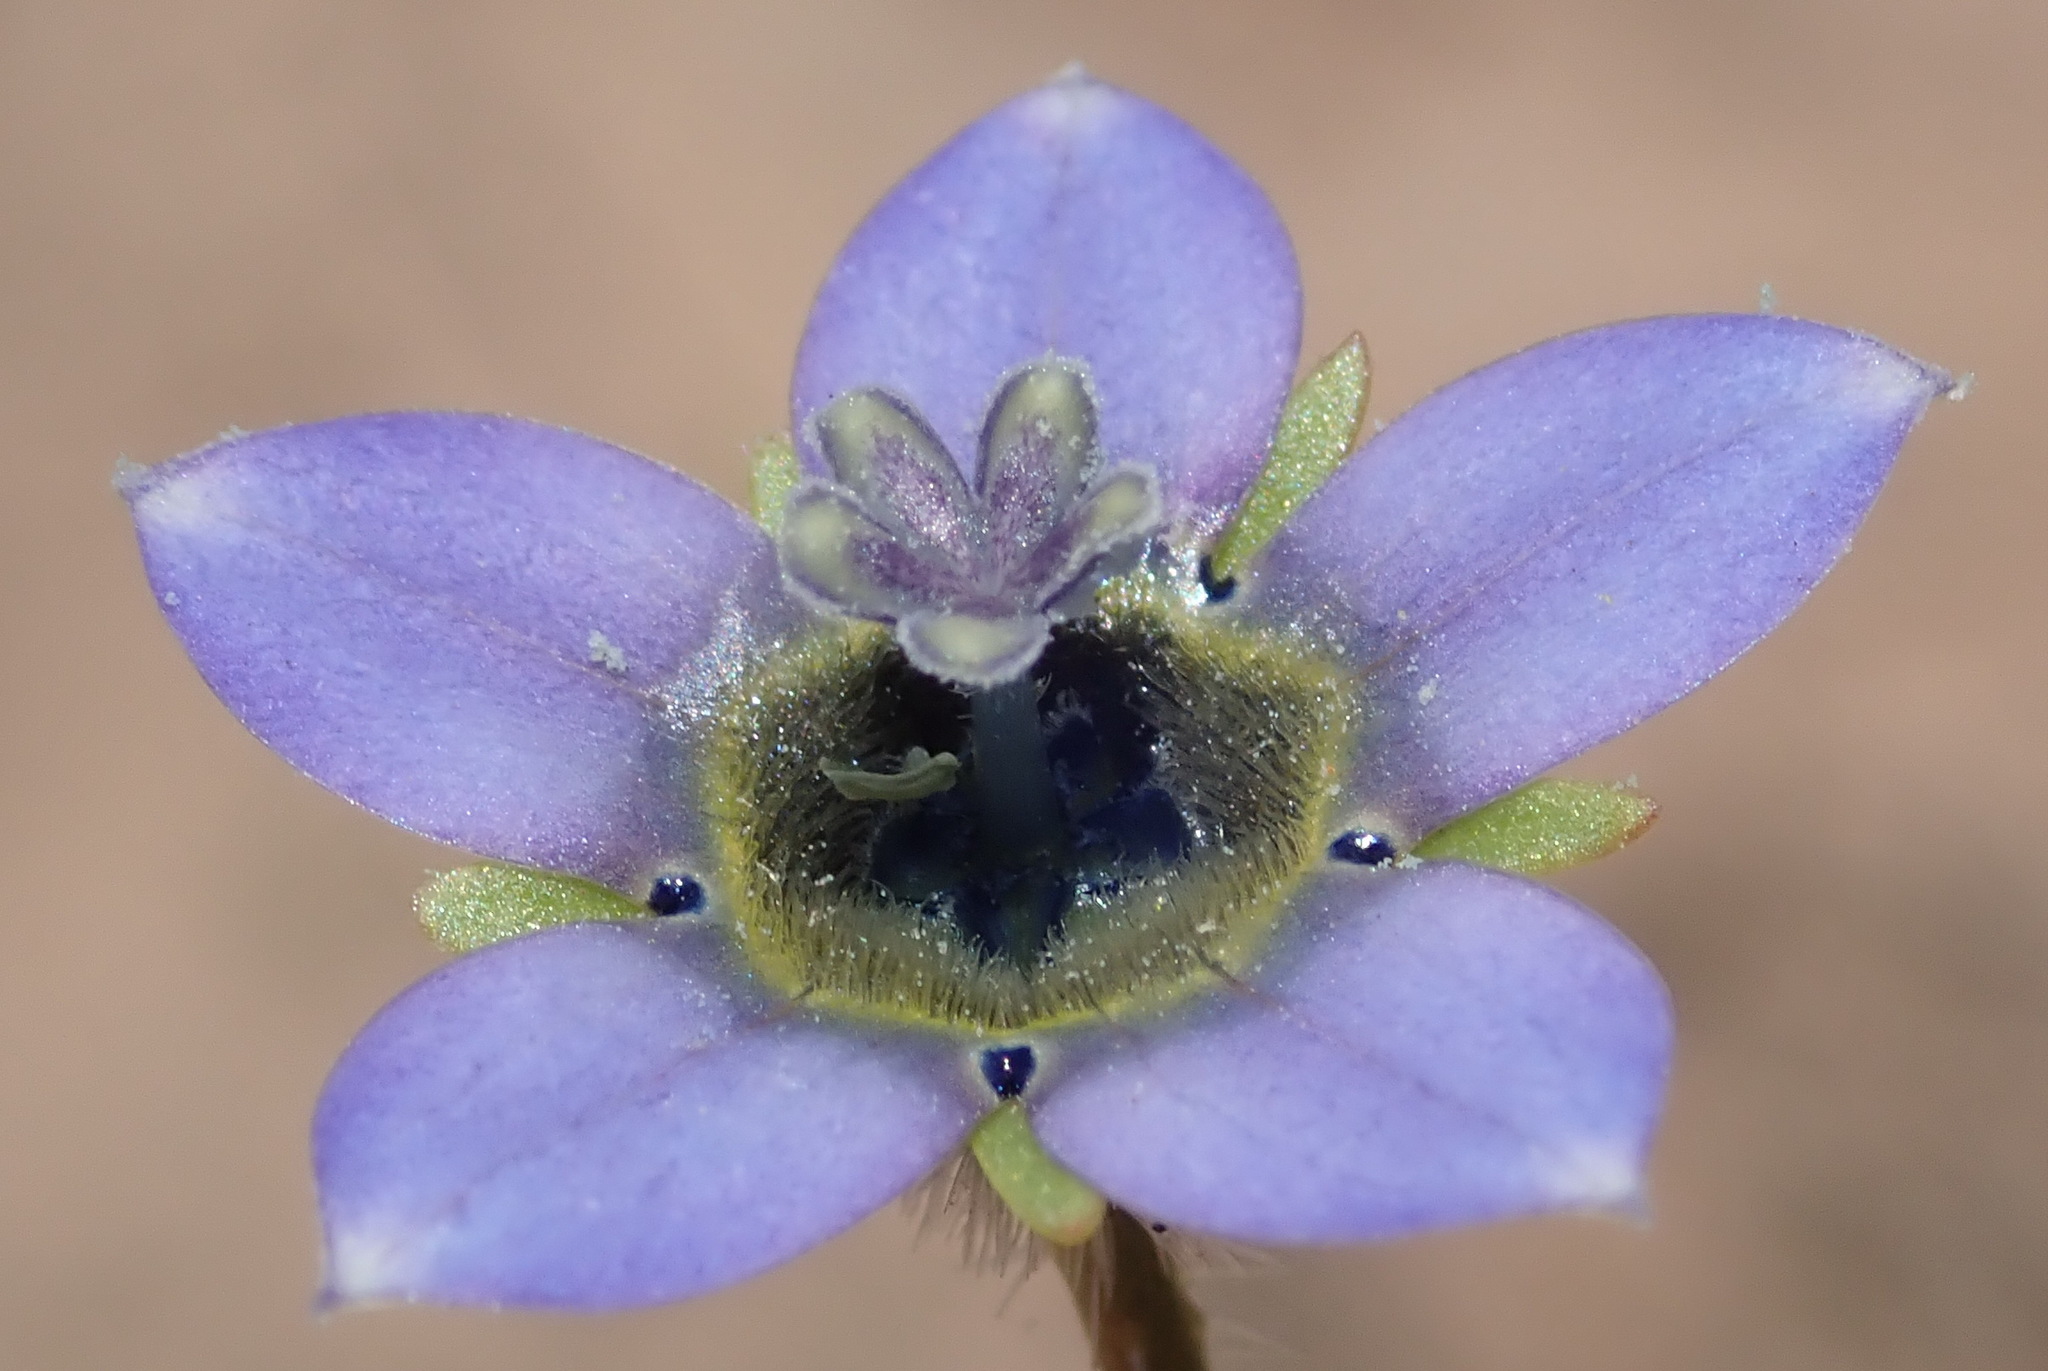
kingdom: Plantae
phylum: Tracheophyta
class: Magnoliopsida
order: Asterales
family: Campanulaceae
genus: Wahlenbergia
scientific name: Wahlenbergia capensis
